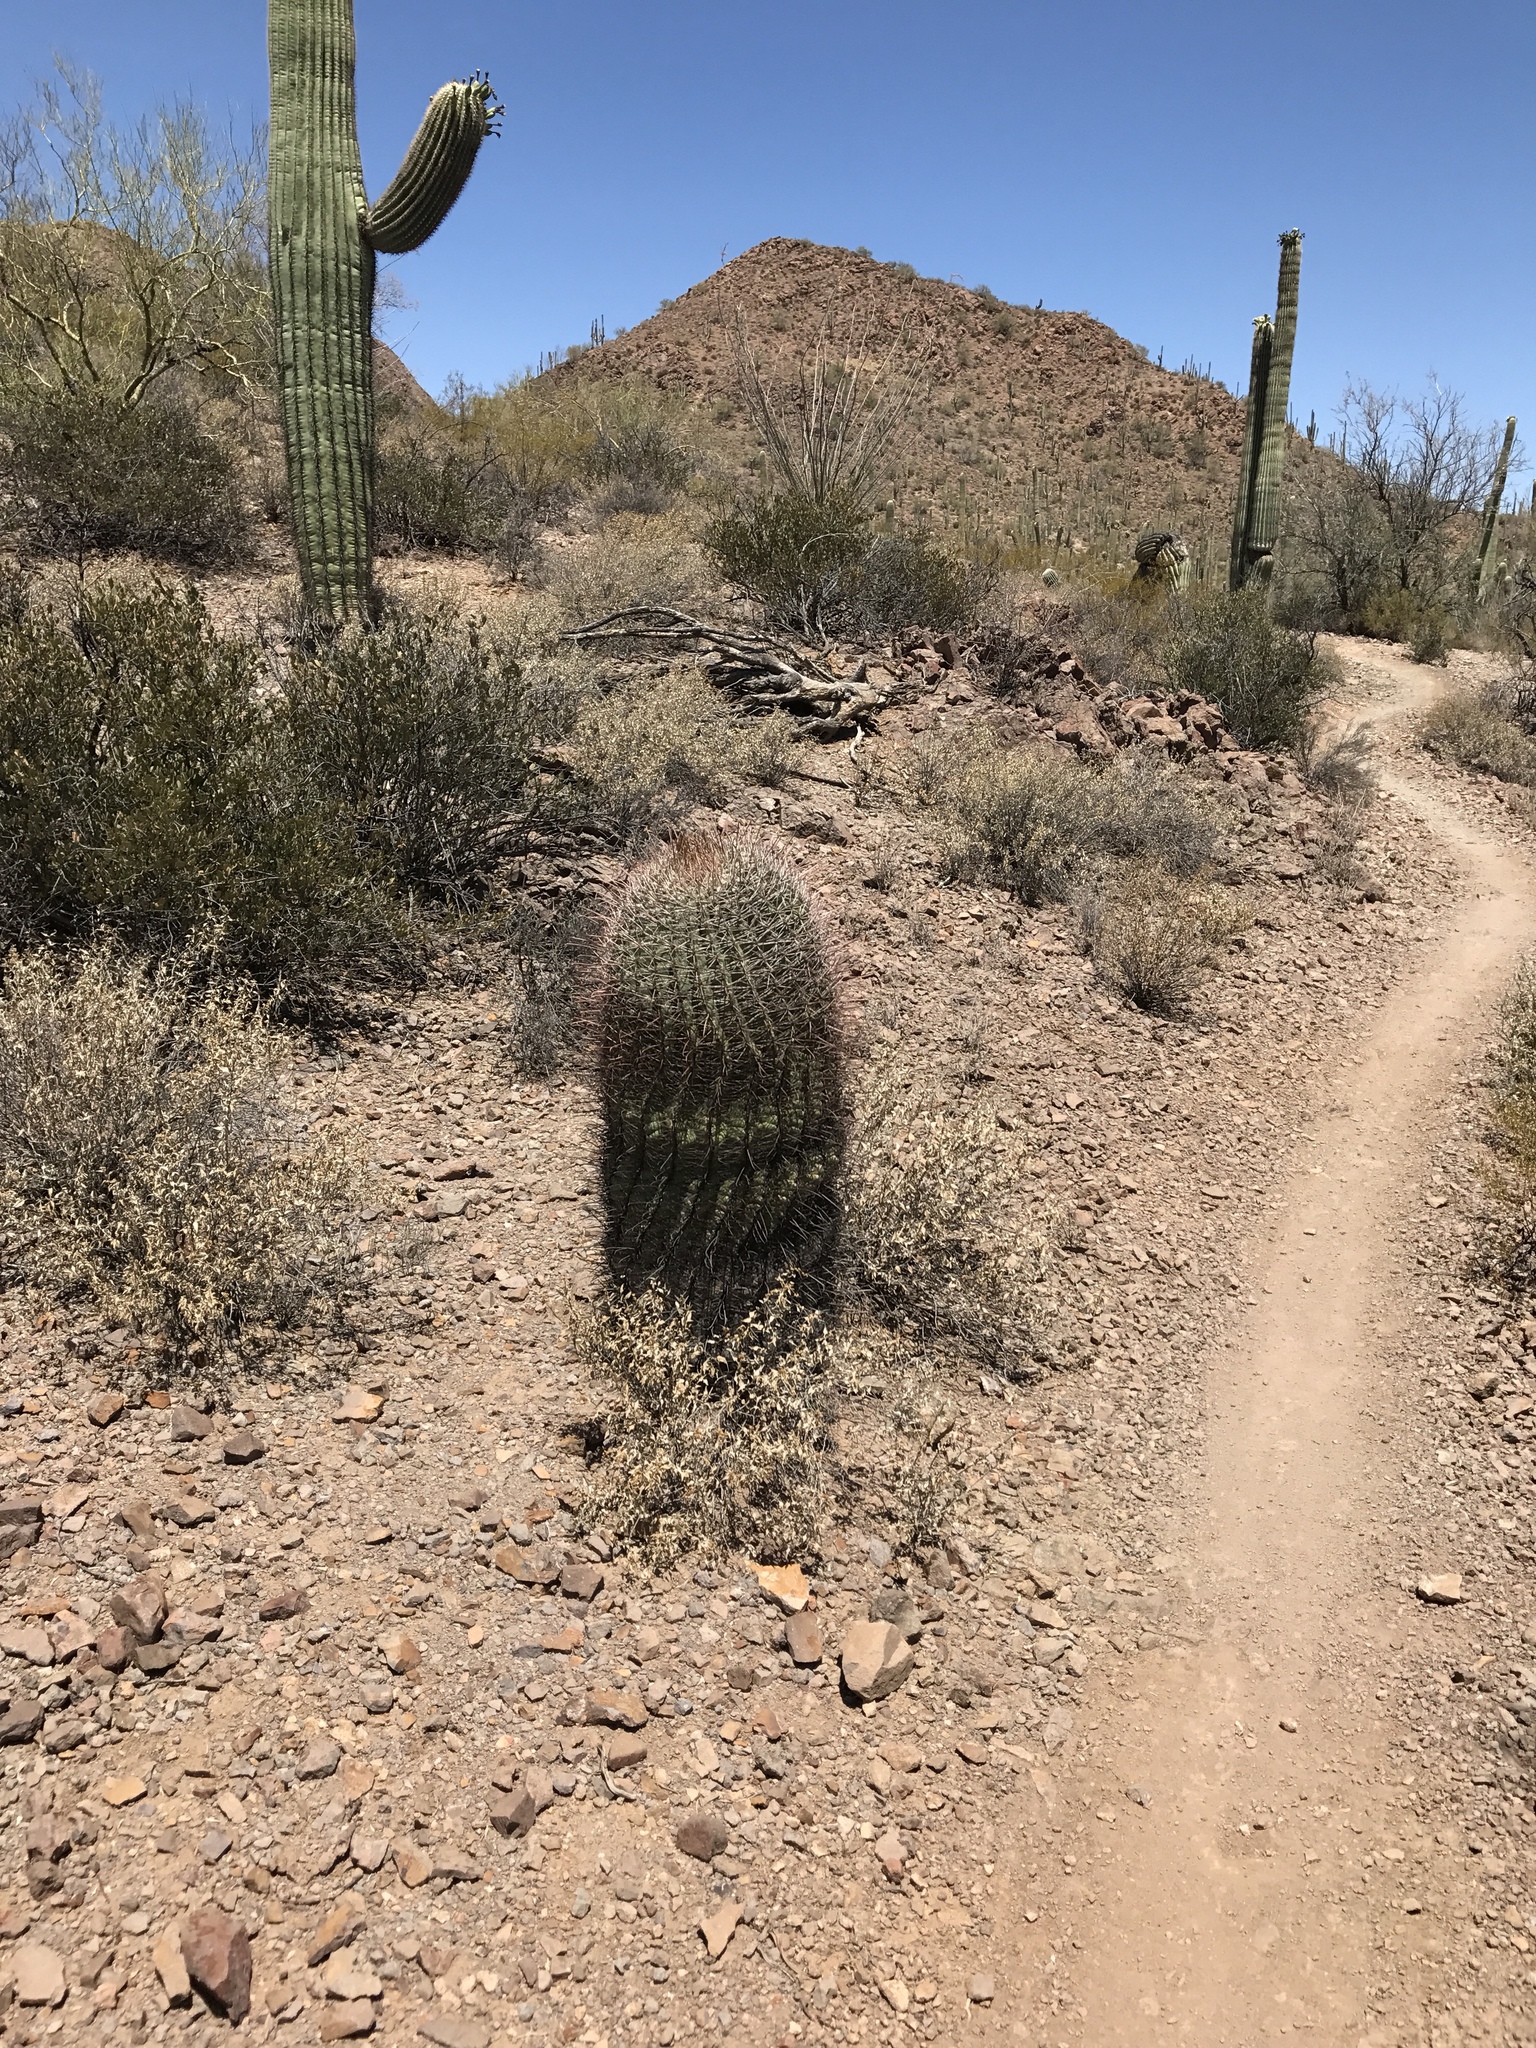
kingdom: Plantae
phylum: Tracheophyta
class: Magnoliopsida
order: Caryophyllales
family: Cactaceae
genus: Ferocactus
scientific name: Ferocactus wislizeni
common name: Candy barrel cactus
